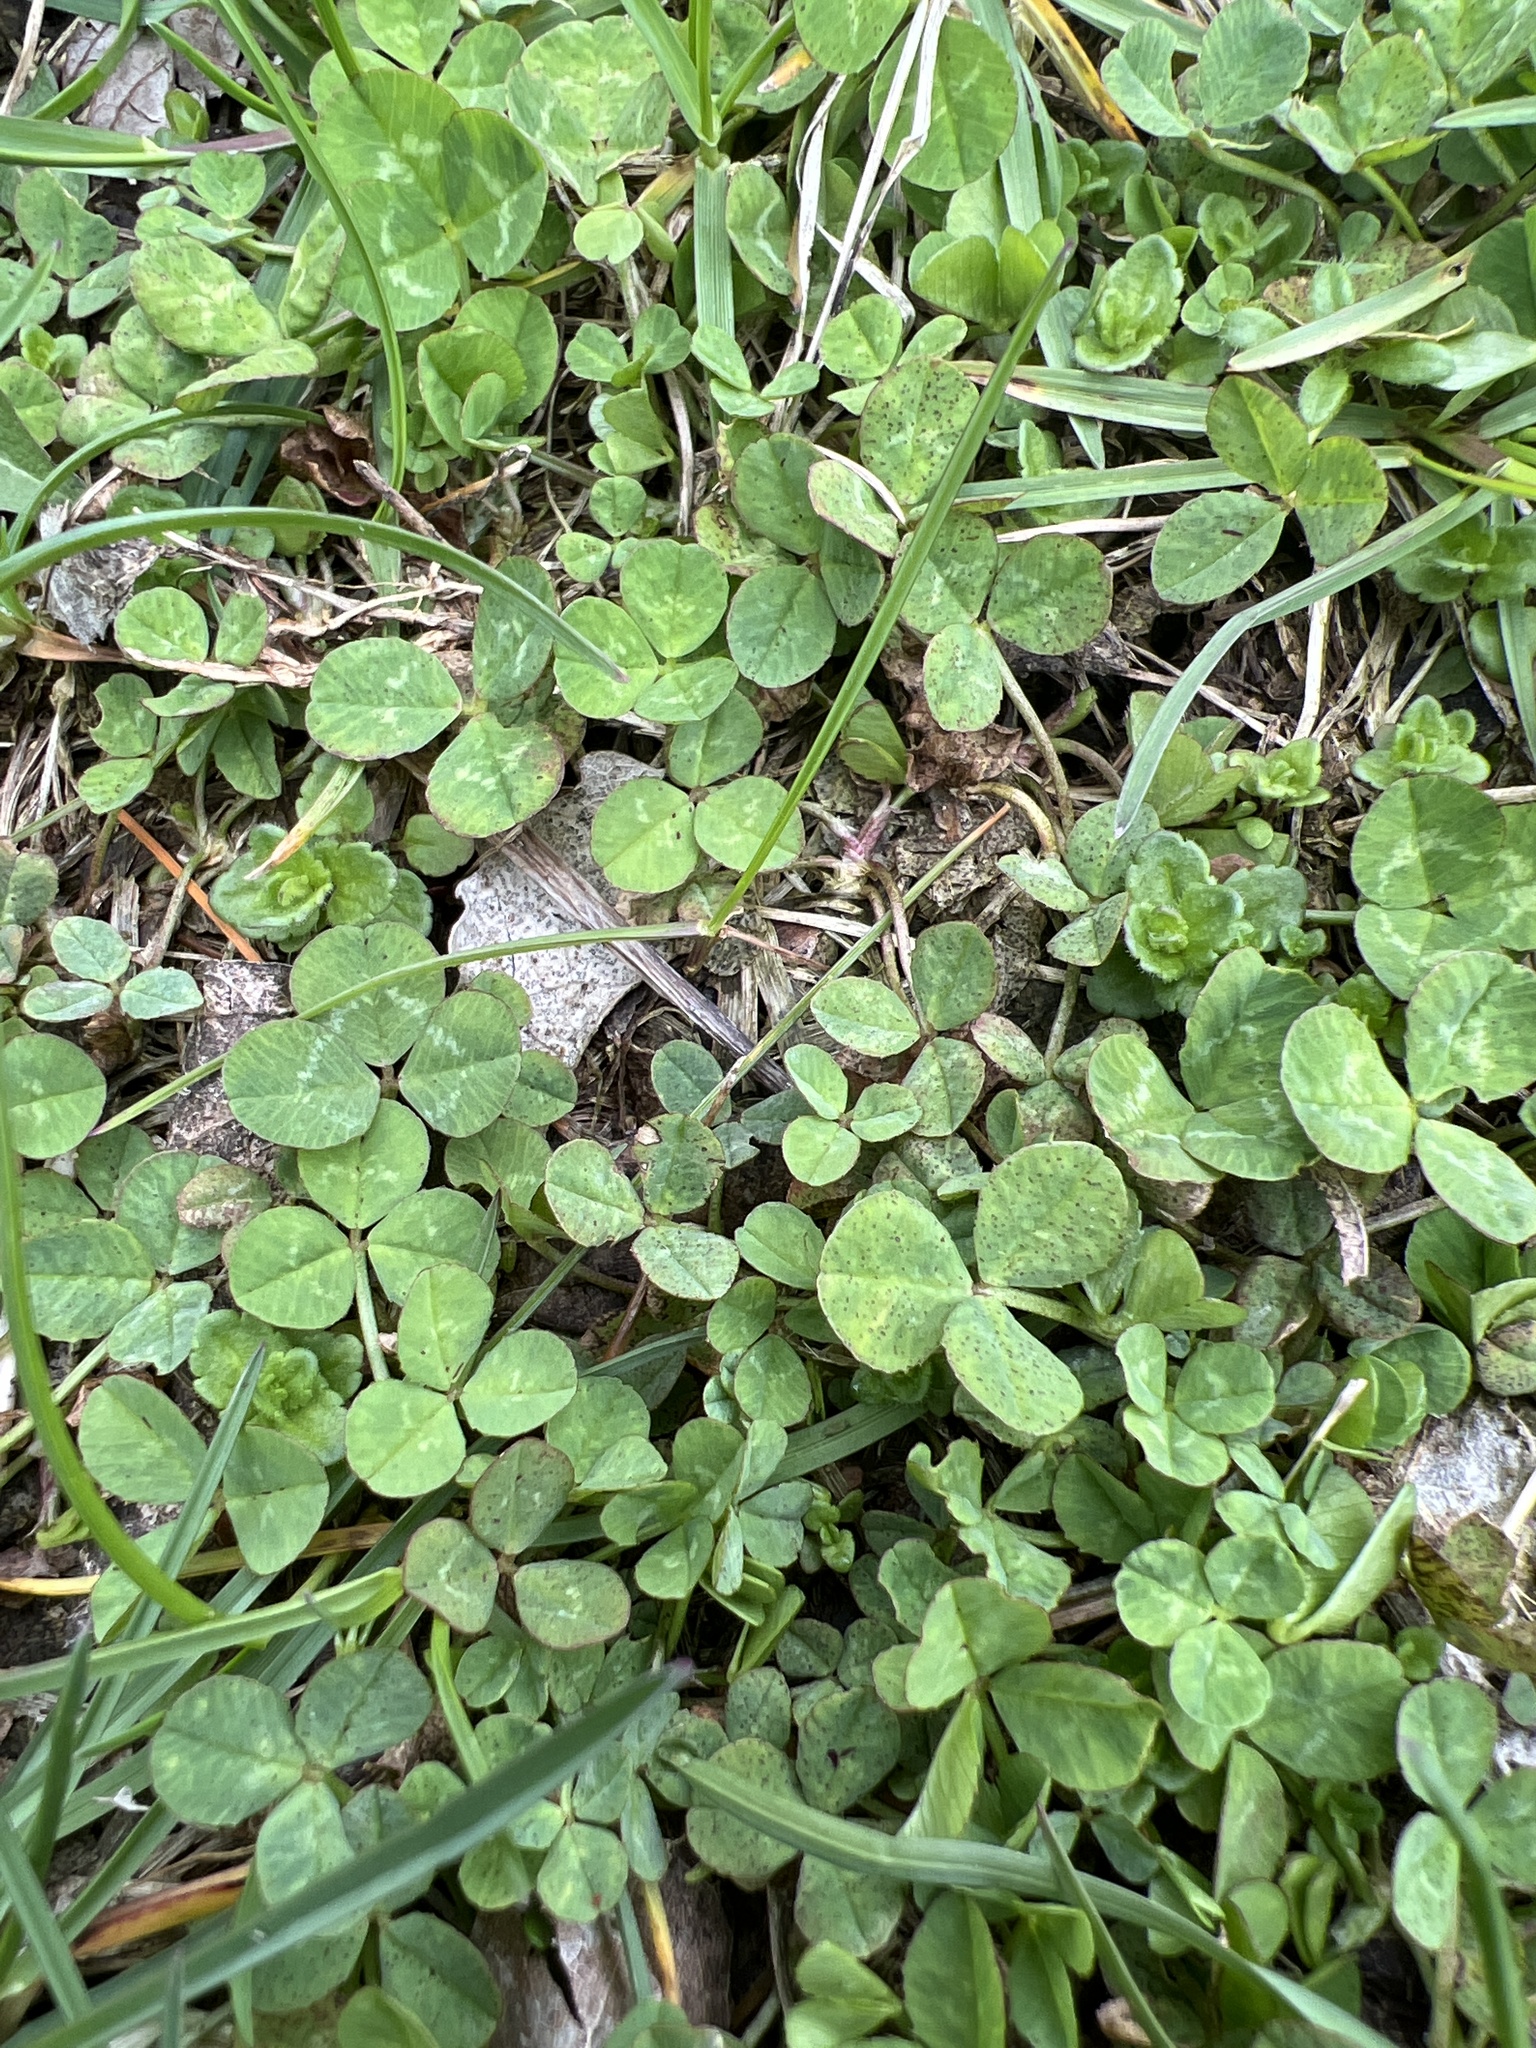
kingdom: Plantae
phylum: Tracheophyta
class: Magnoliopsida
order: Fabales
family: Fabaceae
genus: Trifolium
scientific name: Trifolium repens
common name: White clover
